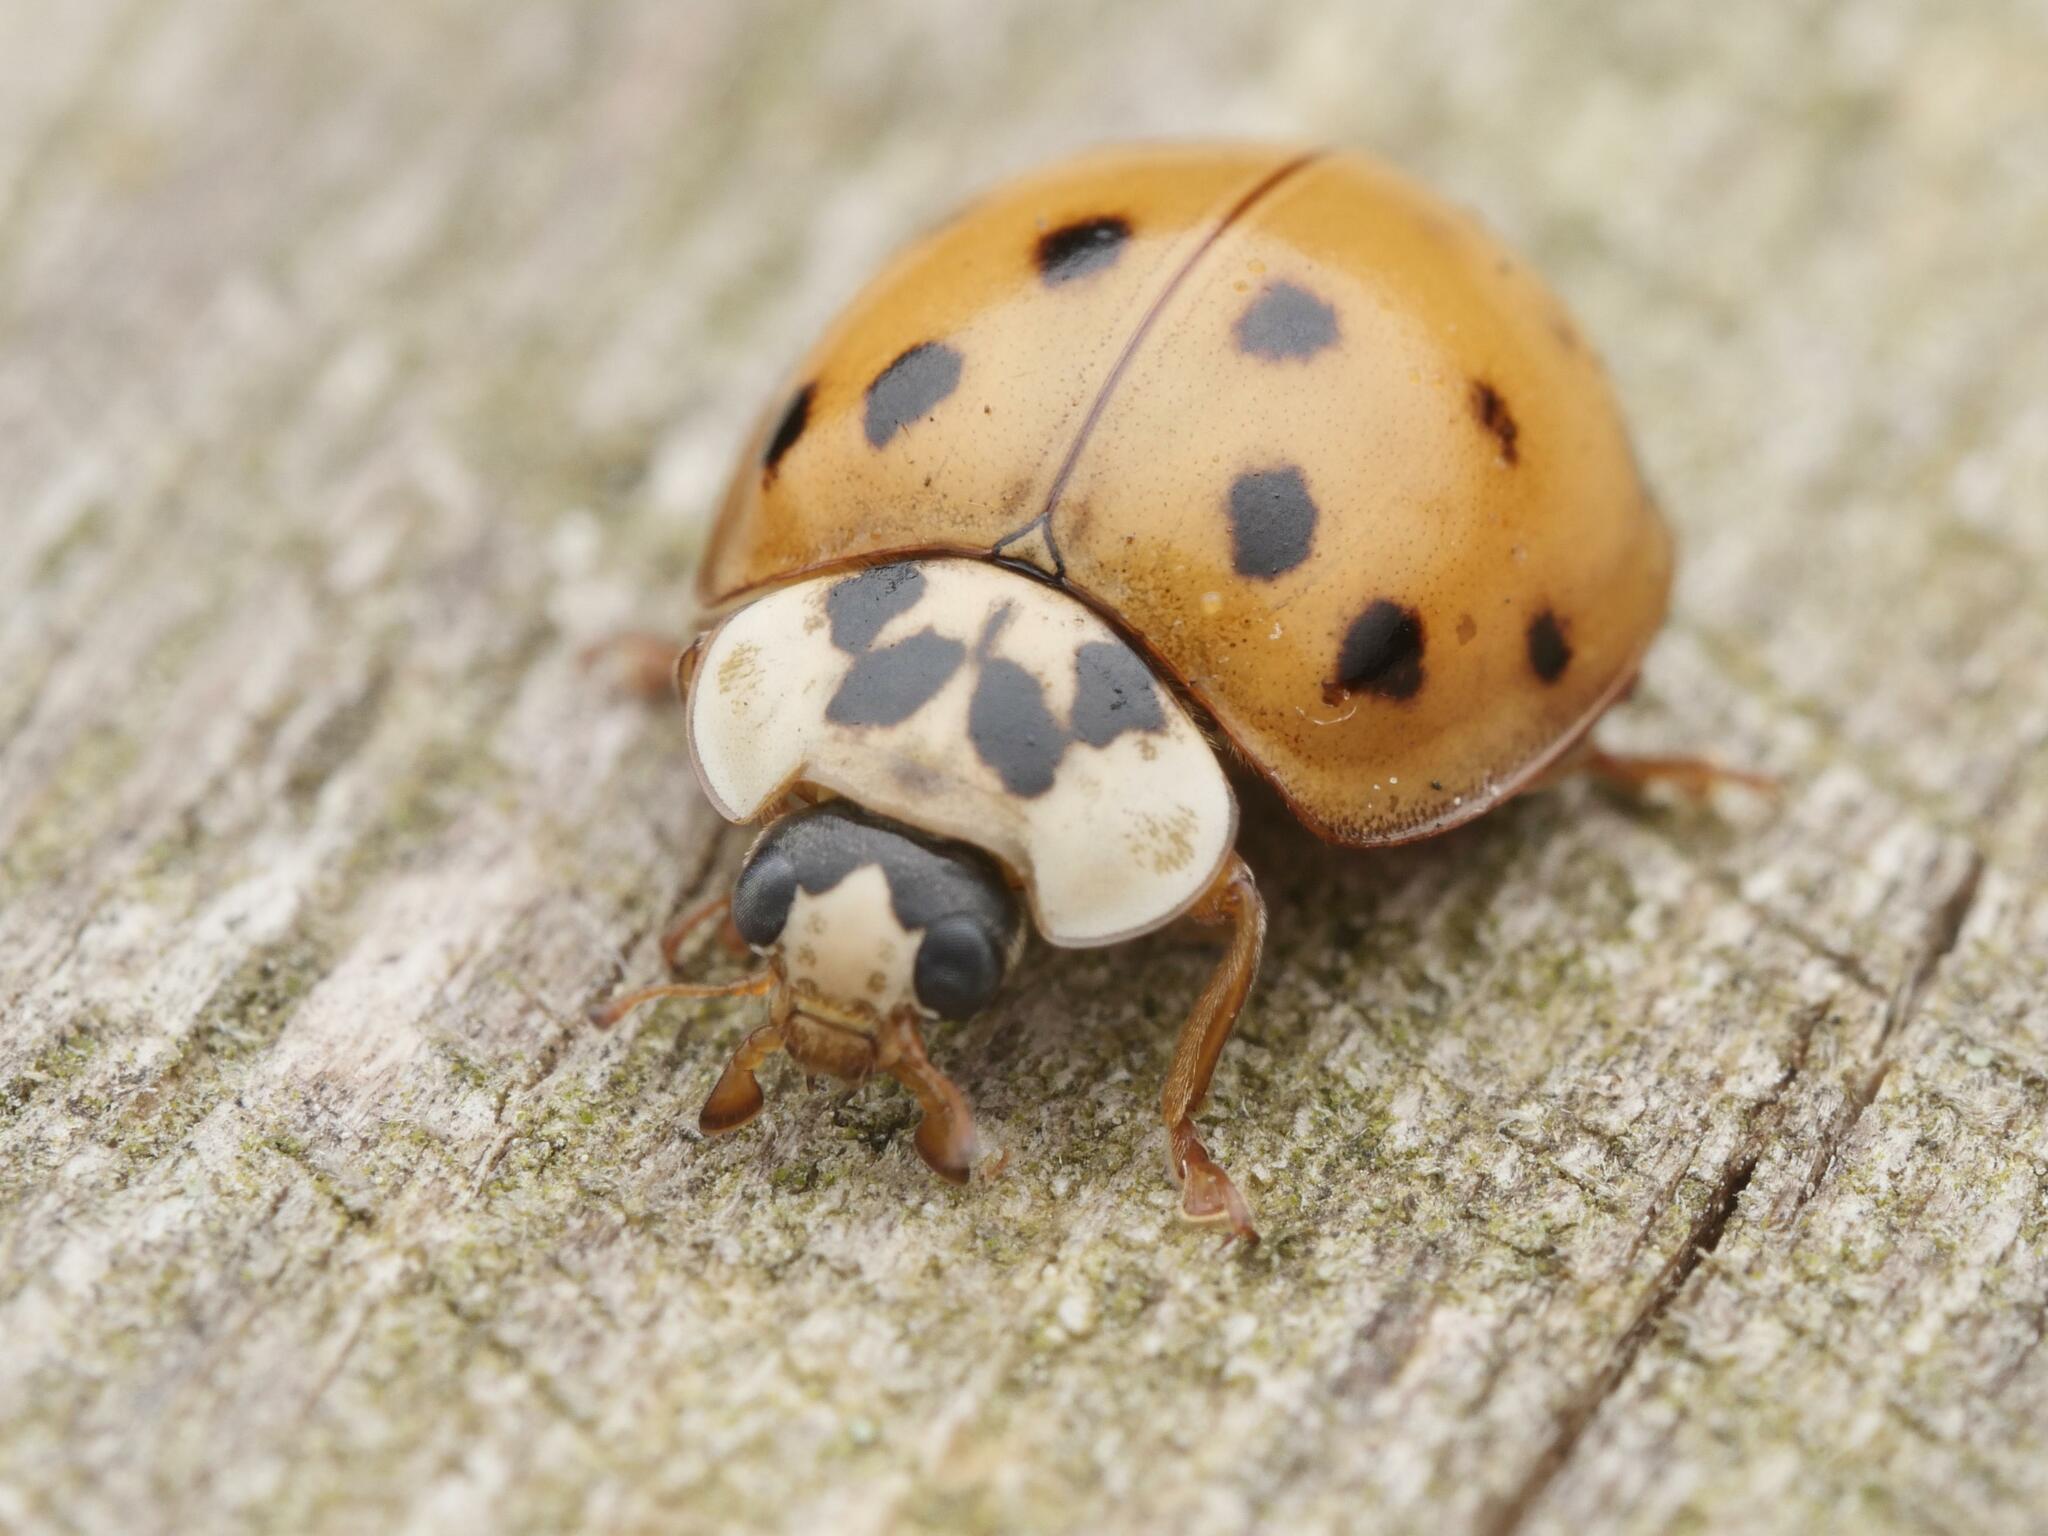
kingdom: Animalia
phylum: Arthropoda
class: Insecta
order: Coleoptera
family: Coccinellidae
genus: Harmonia
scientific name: Harmonia axyridis
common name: Harlequin ladybird
